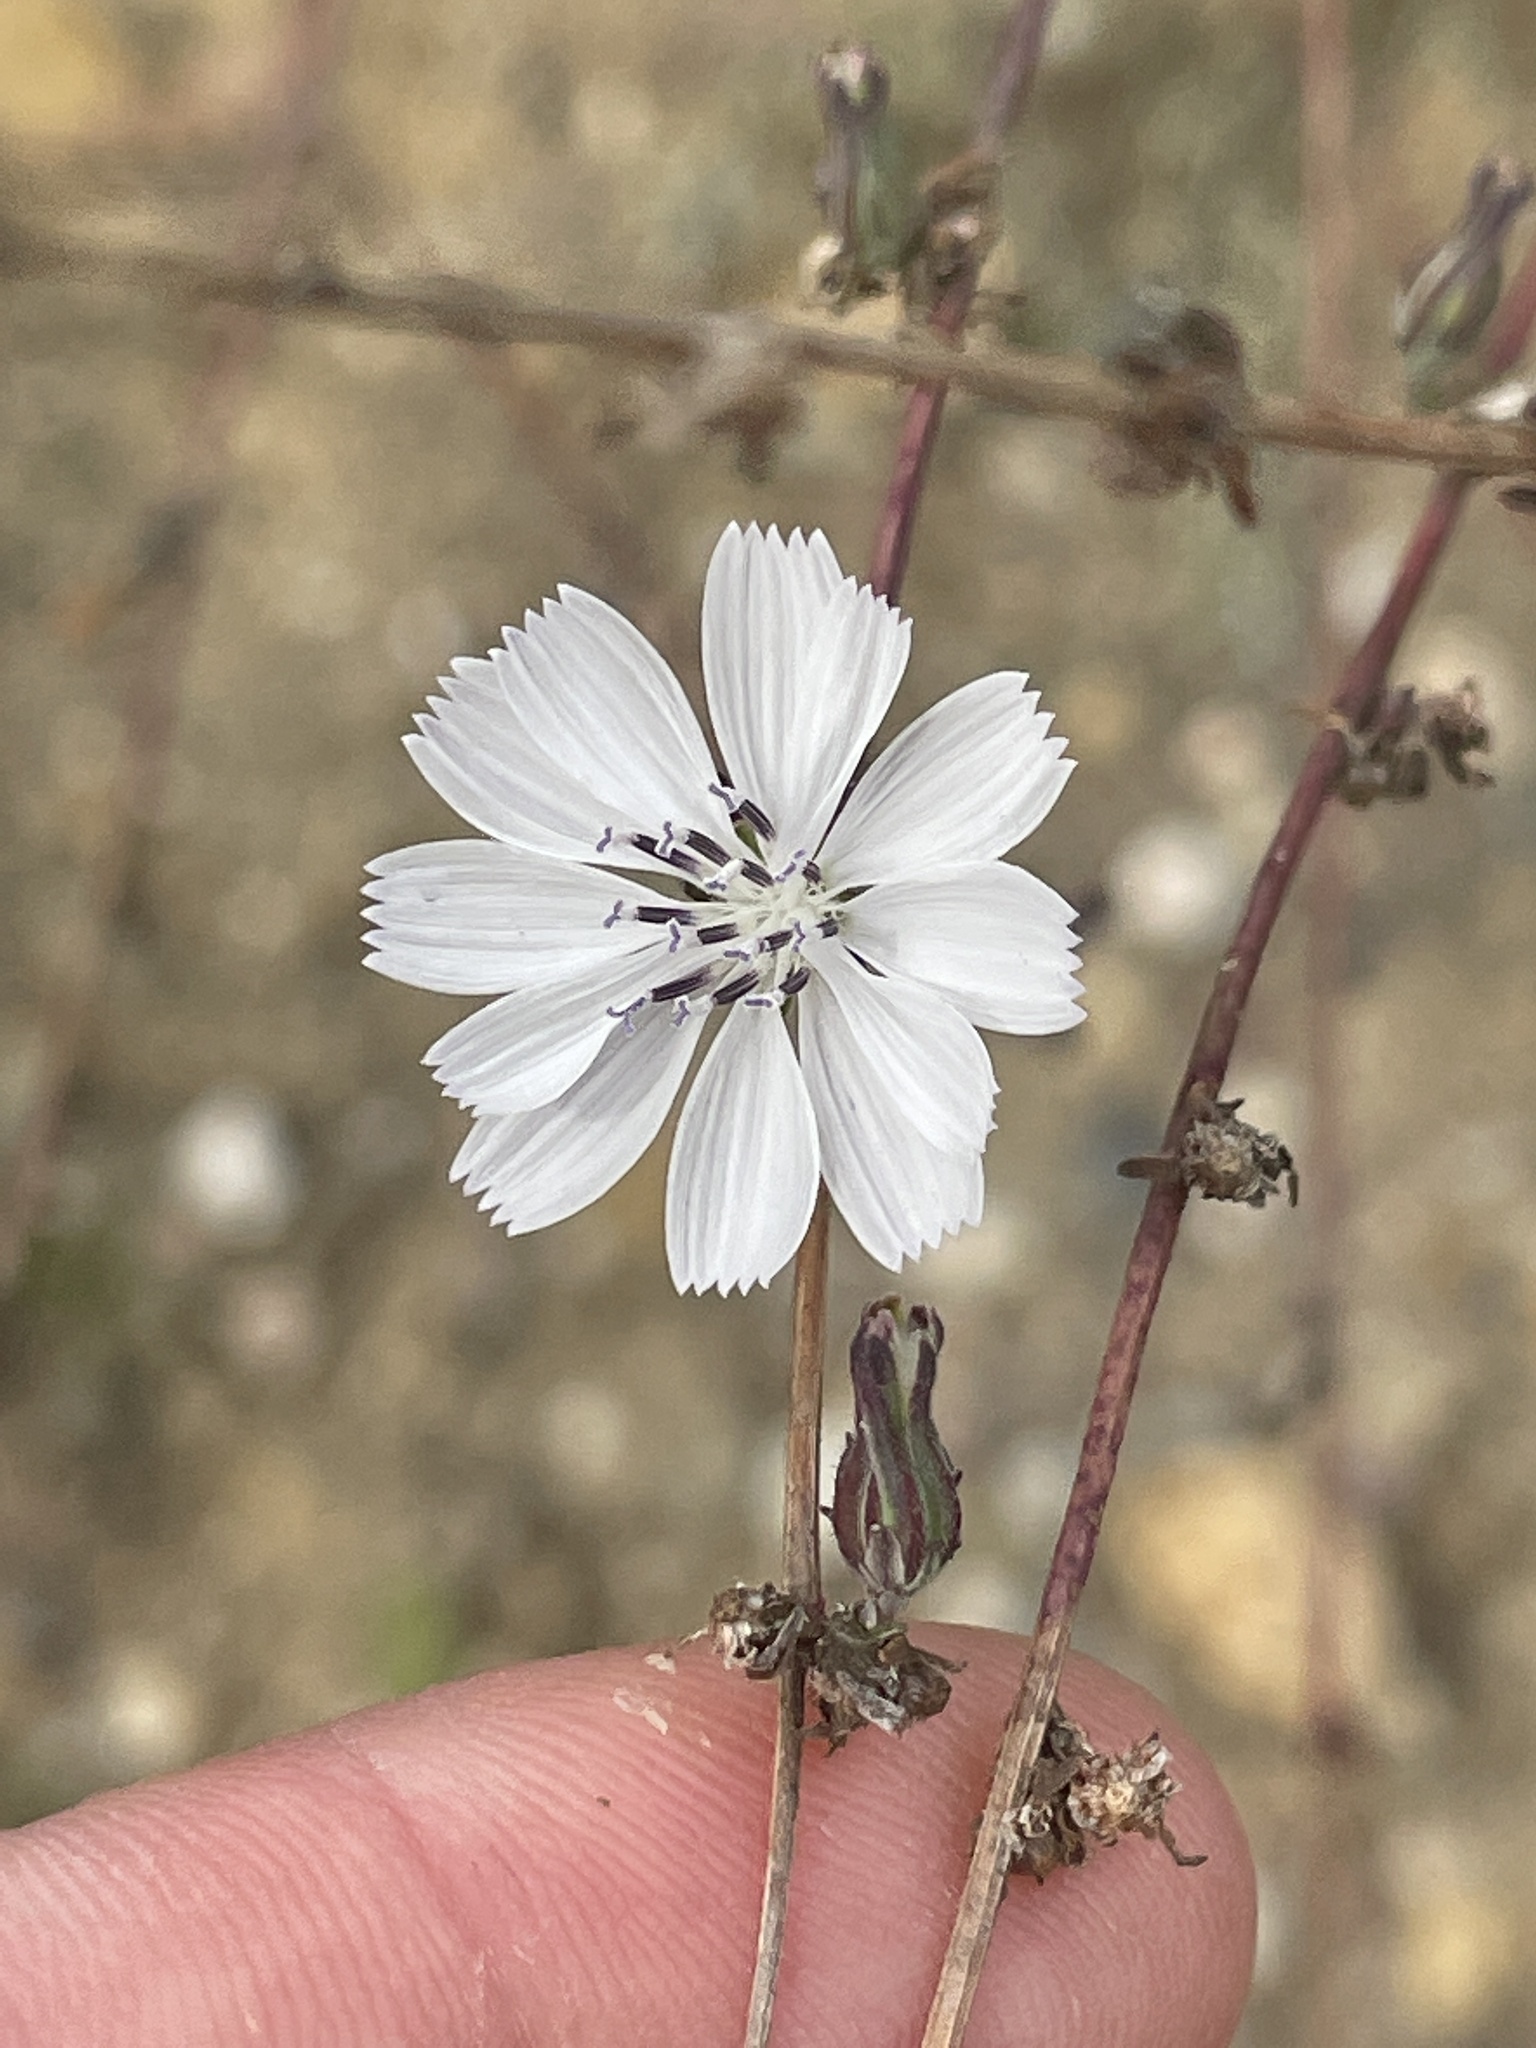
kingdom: Plantae
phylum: Tracheophyta
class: Magnoliopsida
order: Asterales
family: Asteraceae
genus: Stephanomeria
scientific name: Stephanomeria diegensis
